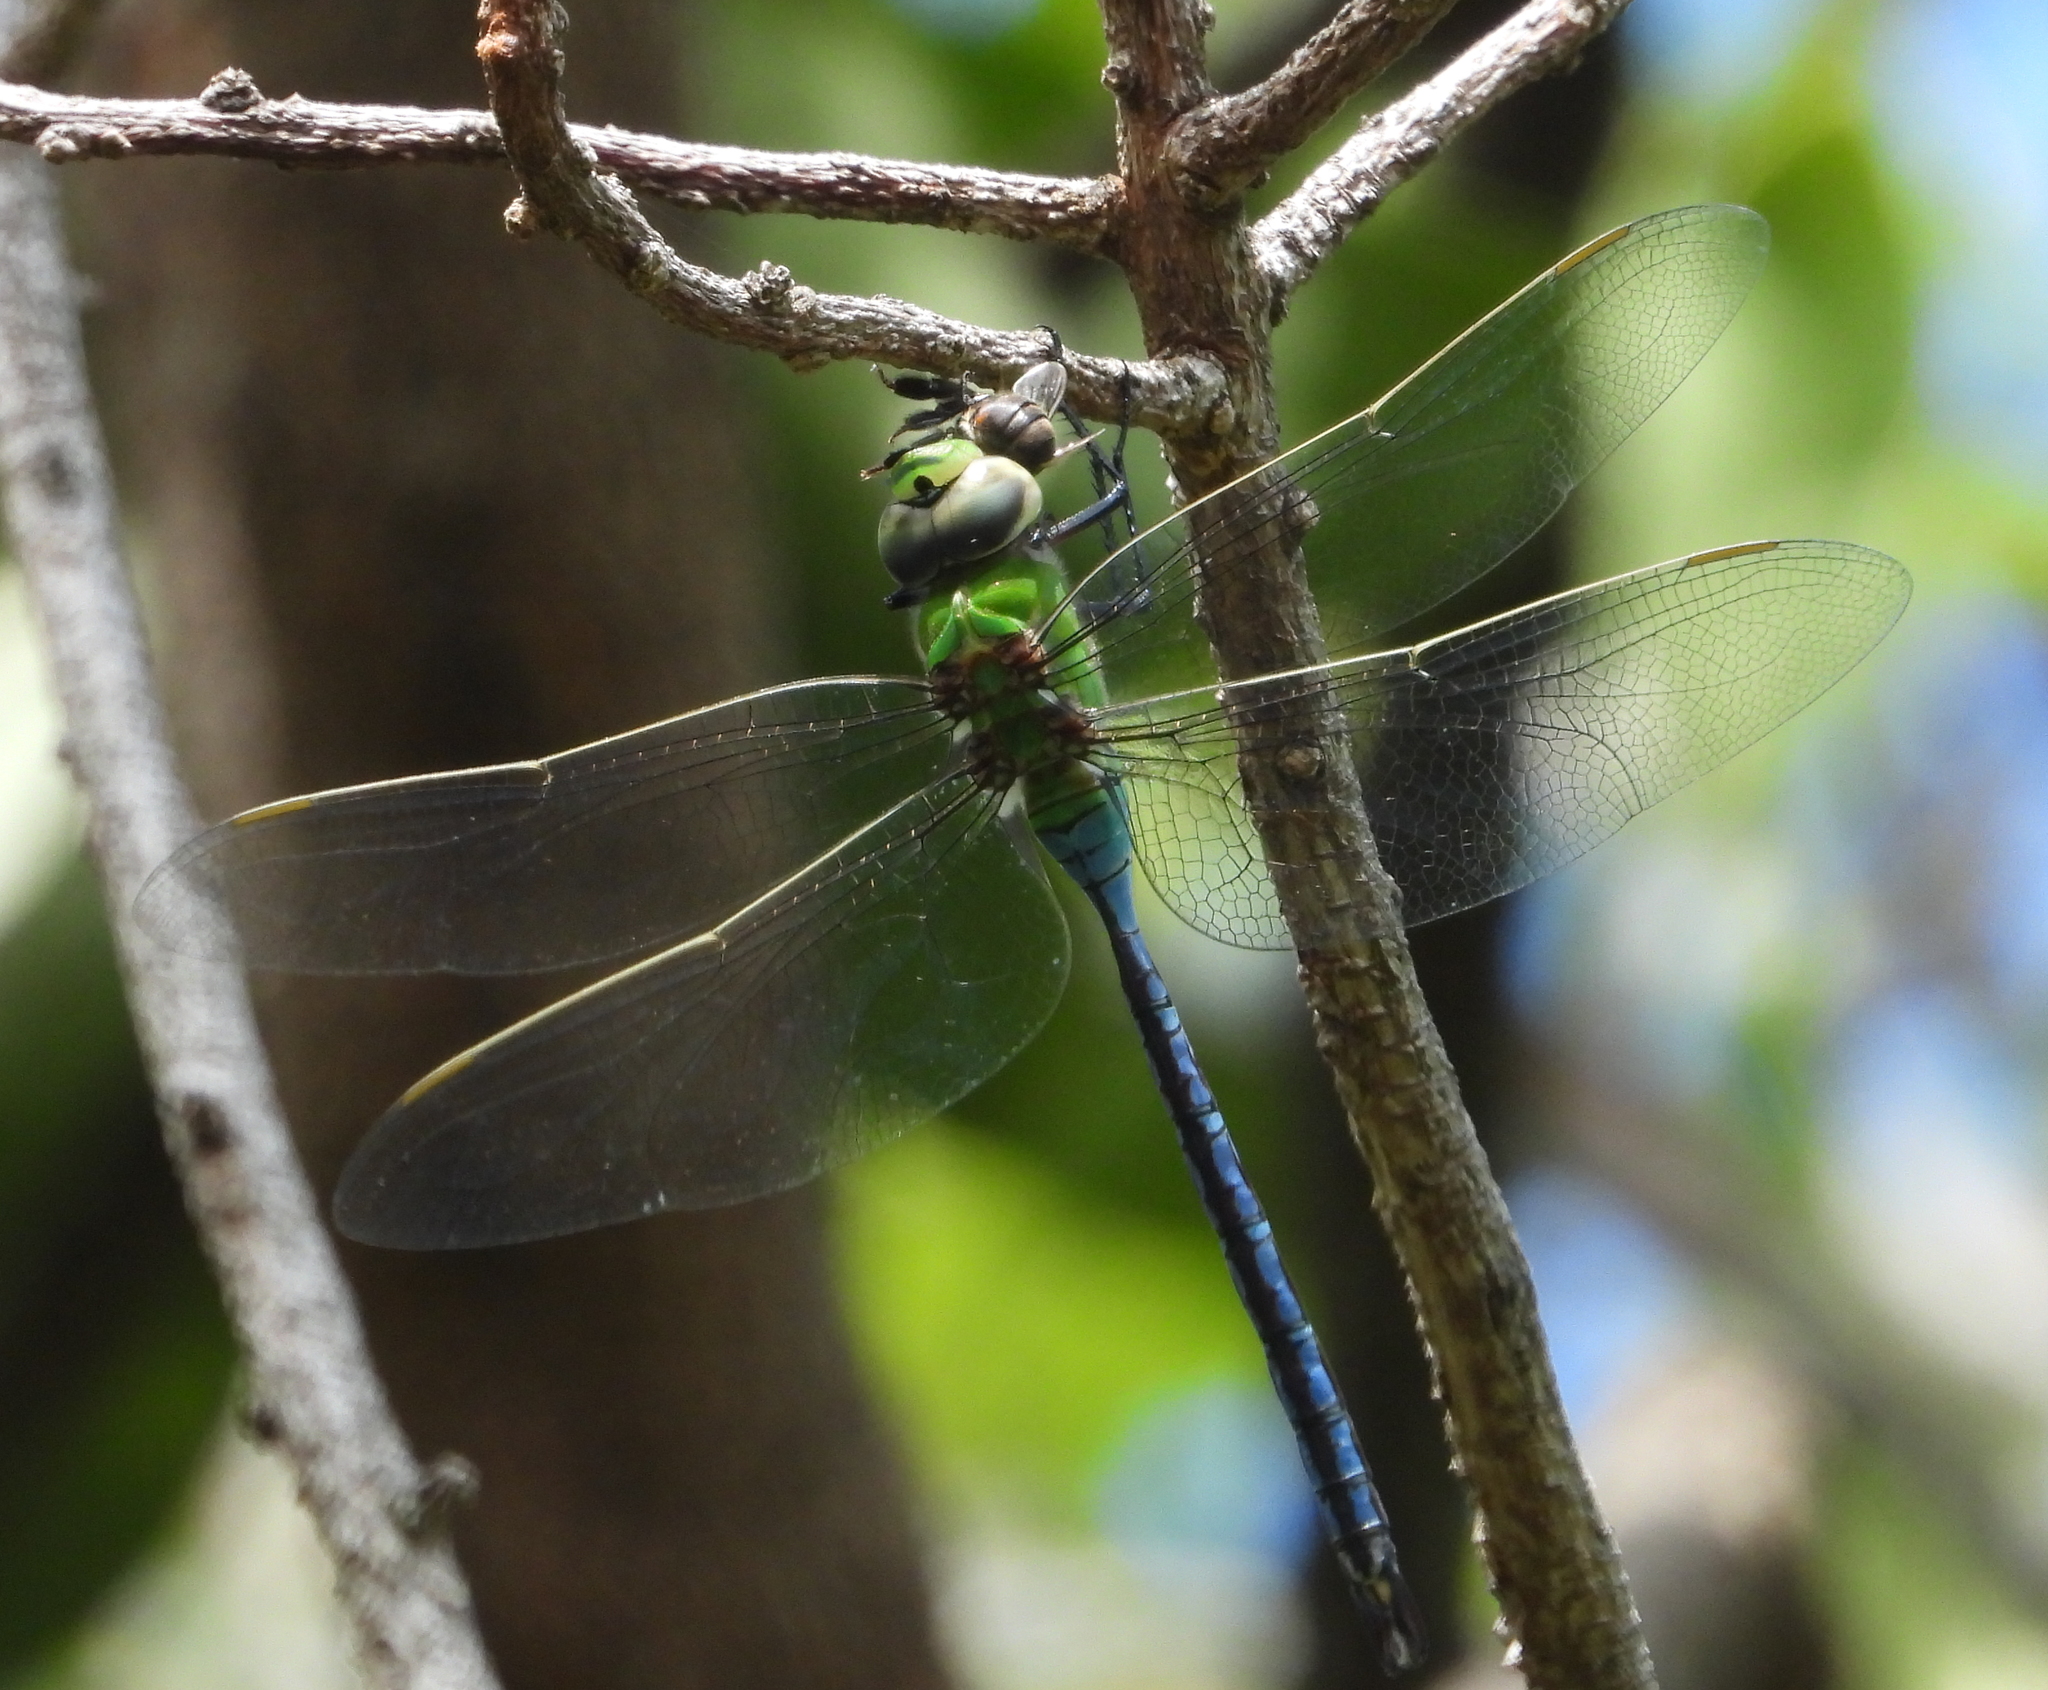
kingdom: Animalia
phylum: Arthropoda
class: Insecta
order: Odonata
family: Aeshnidae
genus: Anax
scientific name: Anax imperator
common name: Emperor dragonfly
